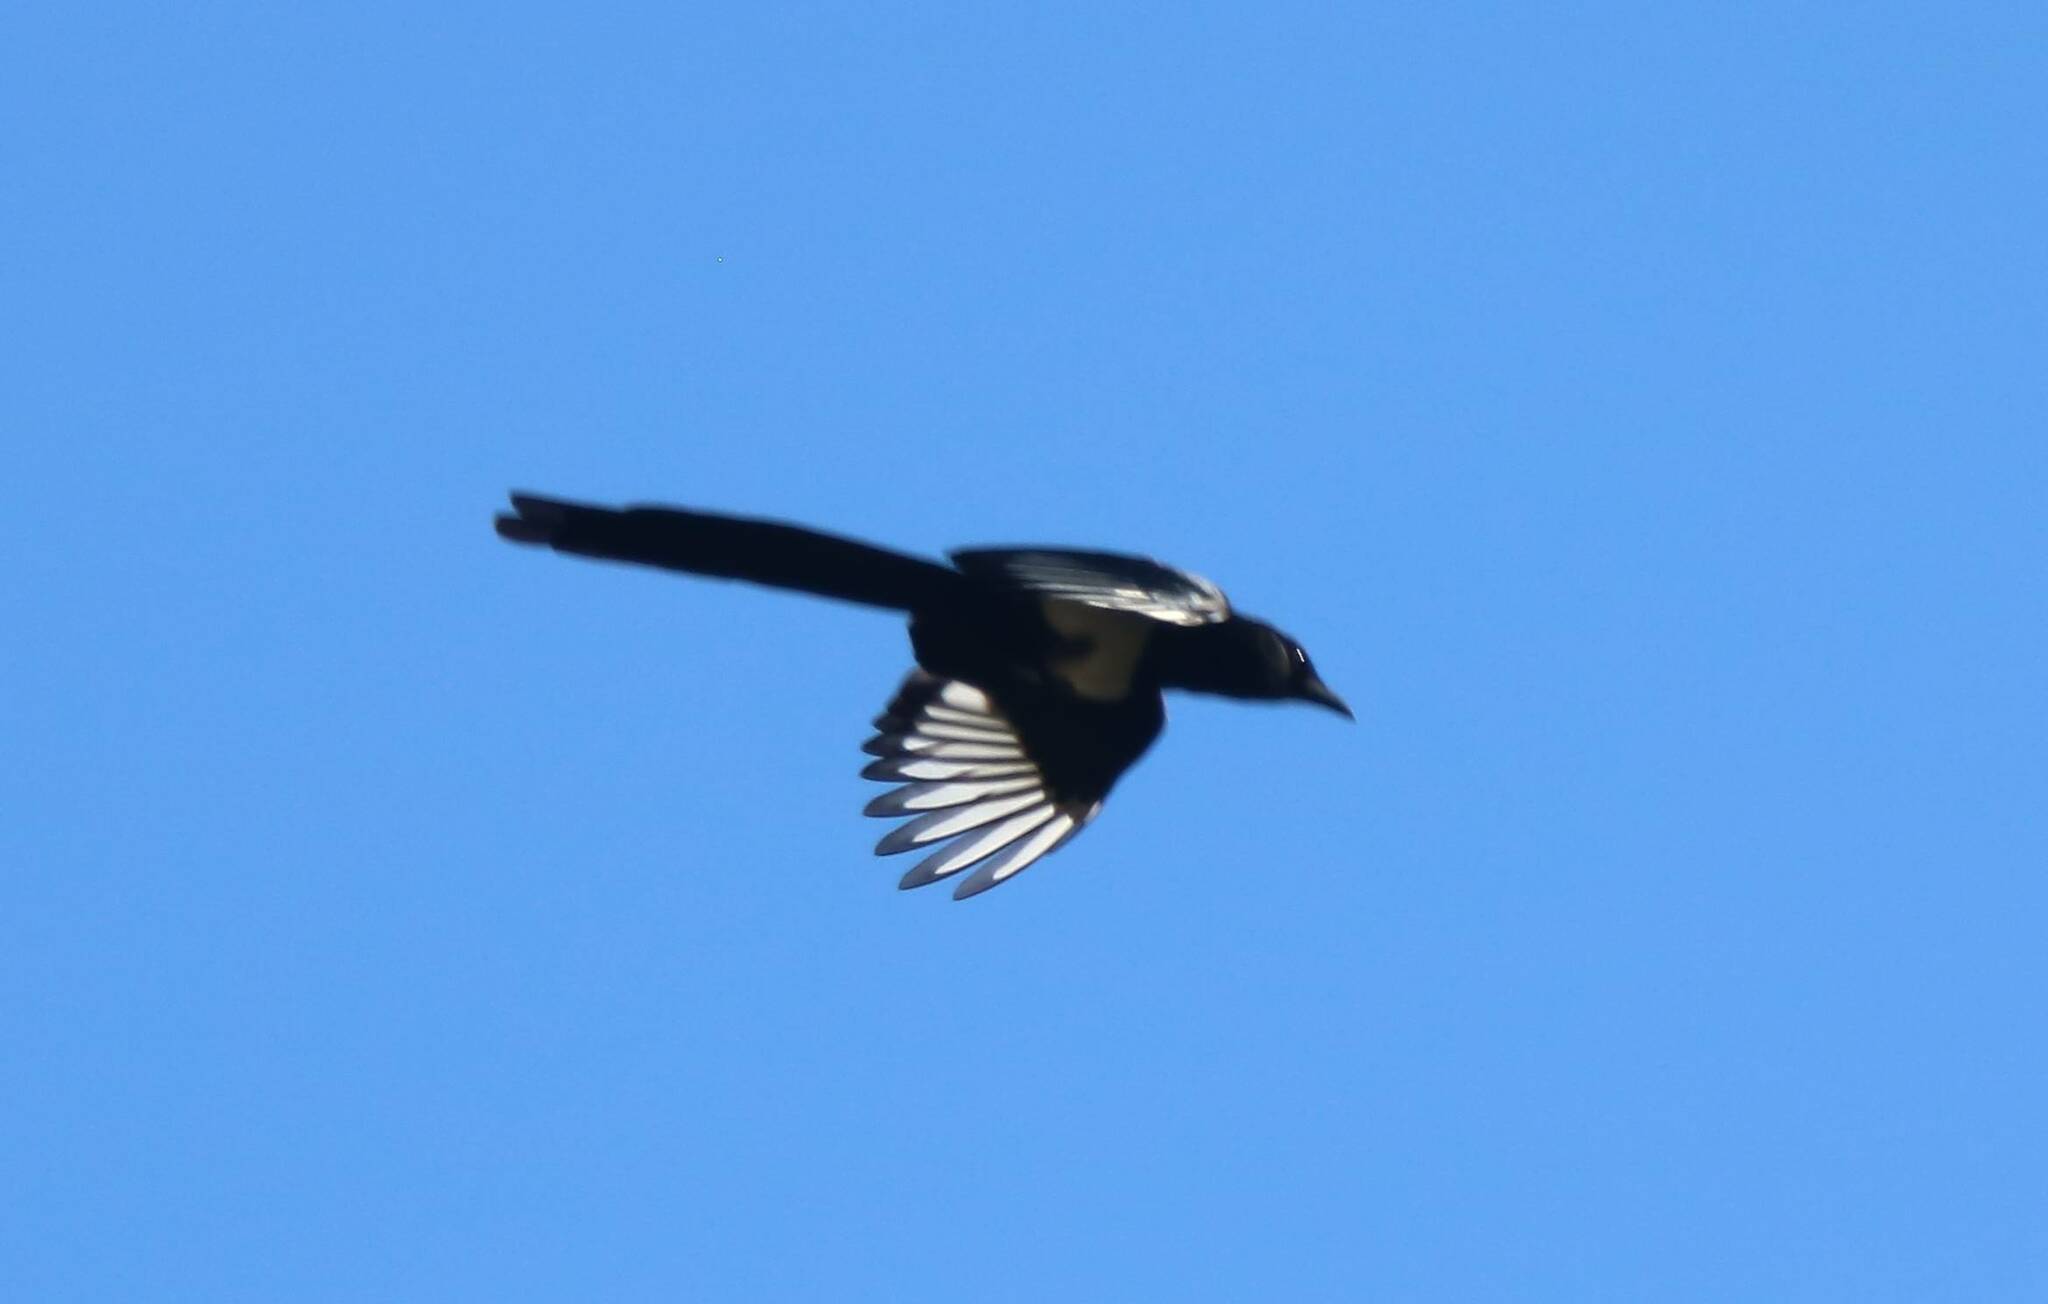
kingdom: Animalia
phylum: Chordata
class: Aves
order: Passeriformes
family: Corvidae
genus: Pica
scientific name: Pica mauritanica
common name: Maghreb magpie
